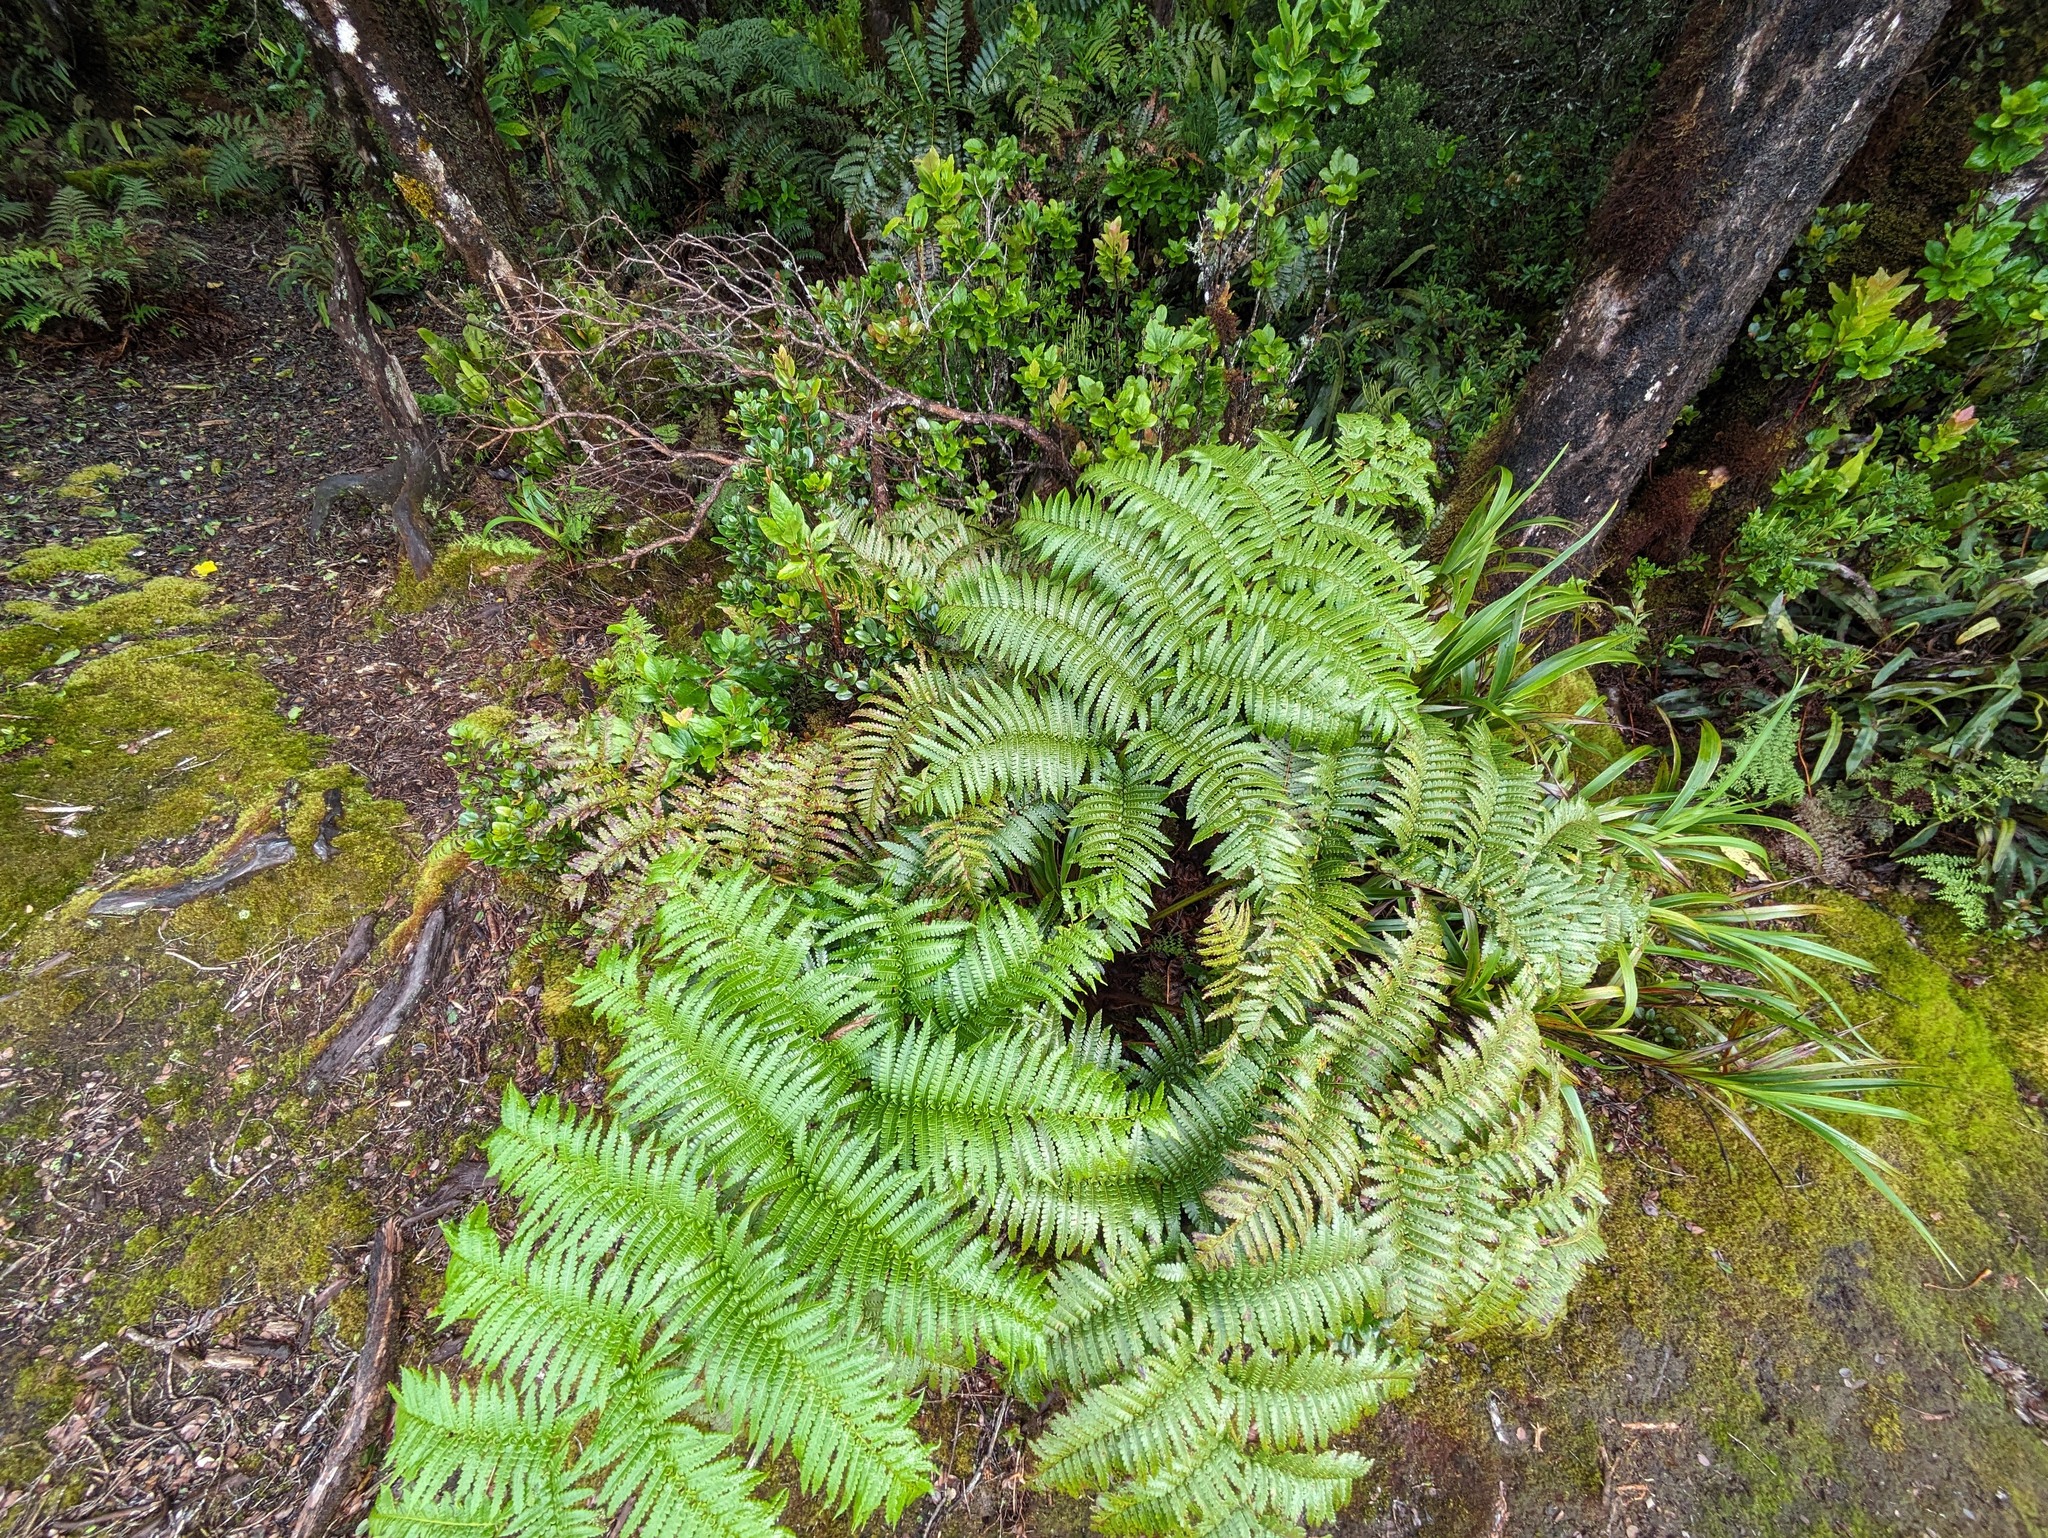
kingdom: Plantae
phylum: Tracheophyta
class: Polypodiopsida
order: Cyatheales
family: Cibotiaceae
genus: Cibotium
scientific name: Cibotium menziesii
